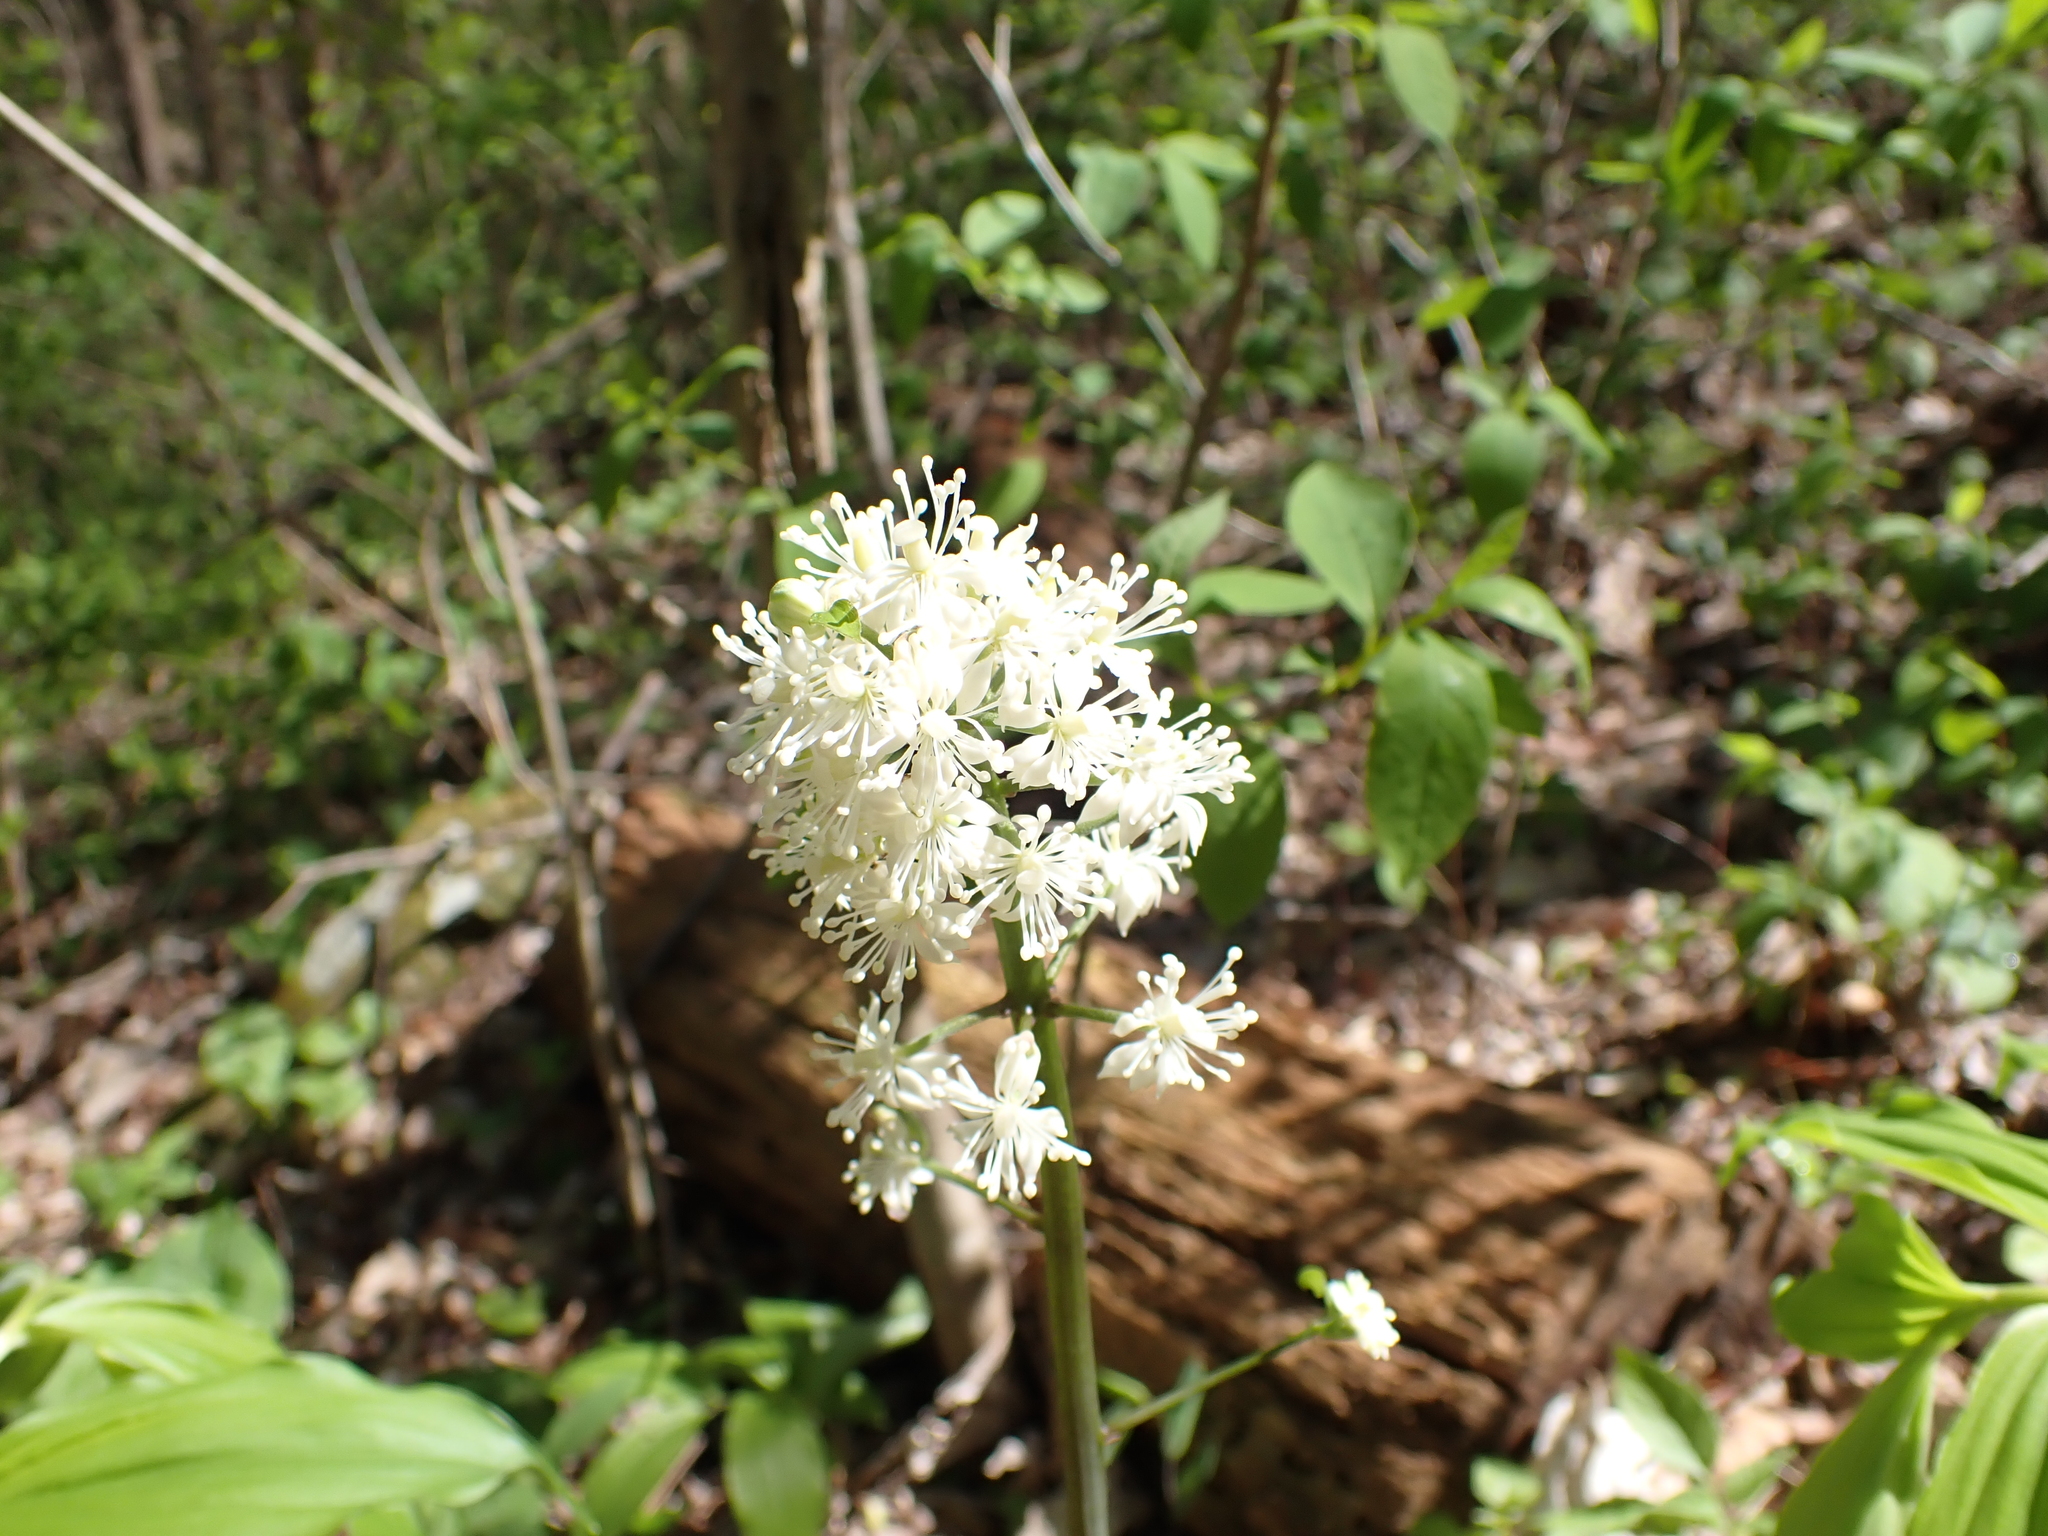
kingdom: Plantae
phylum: Tracheophyta
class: Magnoliopsida
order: Ranunculales
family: Ranunculaceae
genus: Actaea
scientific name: Actaea pachypoda
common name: Doll's-eyes
